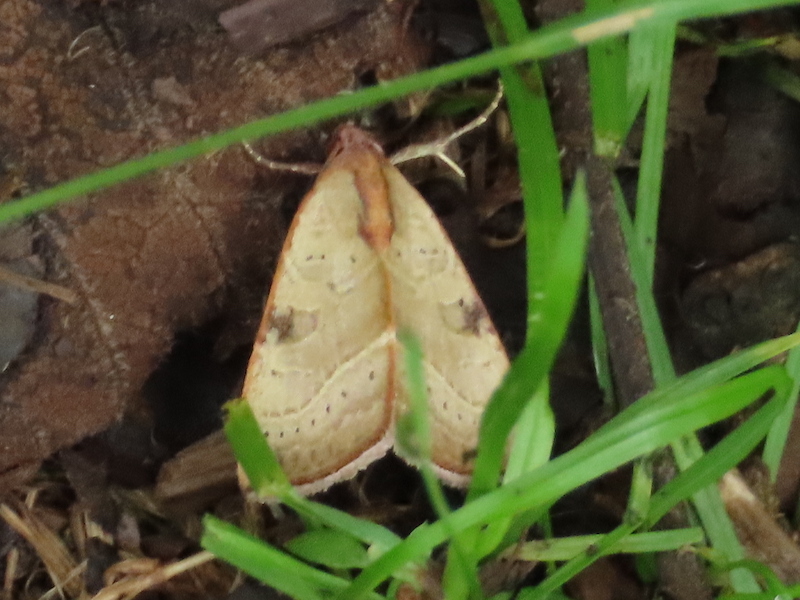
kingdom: Animalia
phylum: Arthropoda
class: Insecta
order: Lepidoptera
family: Noctuidae
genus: Galgula
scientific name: Galgula partita
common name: Wedgeling
